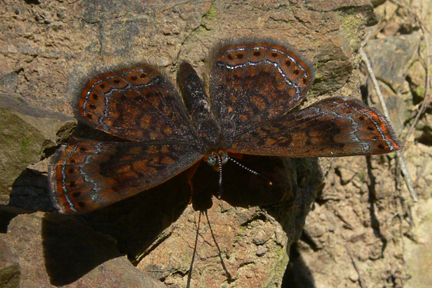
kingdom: Animalia
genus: Calephelis
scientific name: Calephelis borealis
